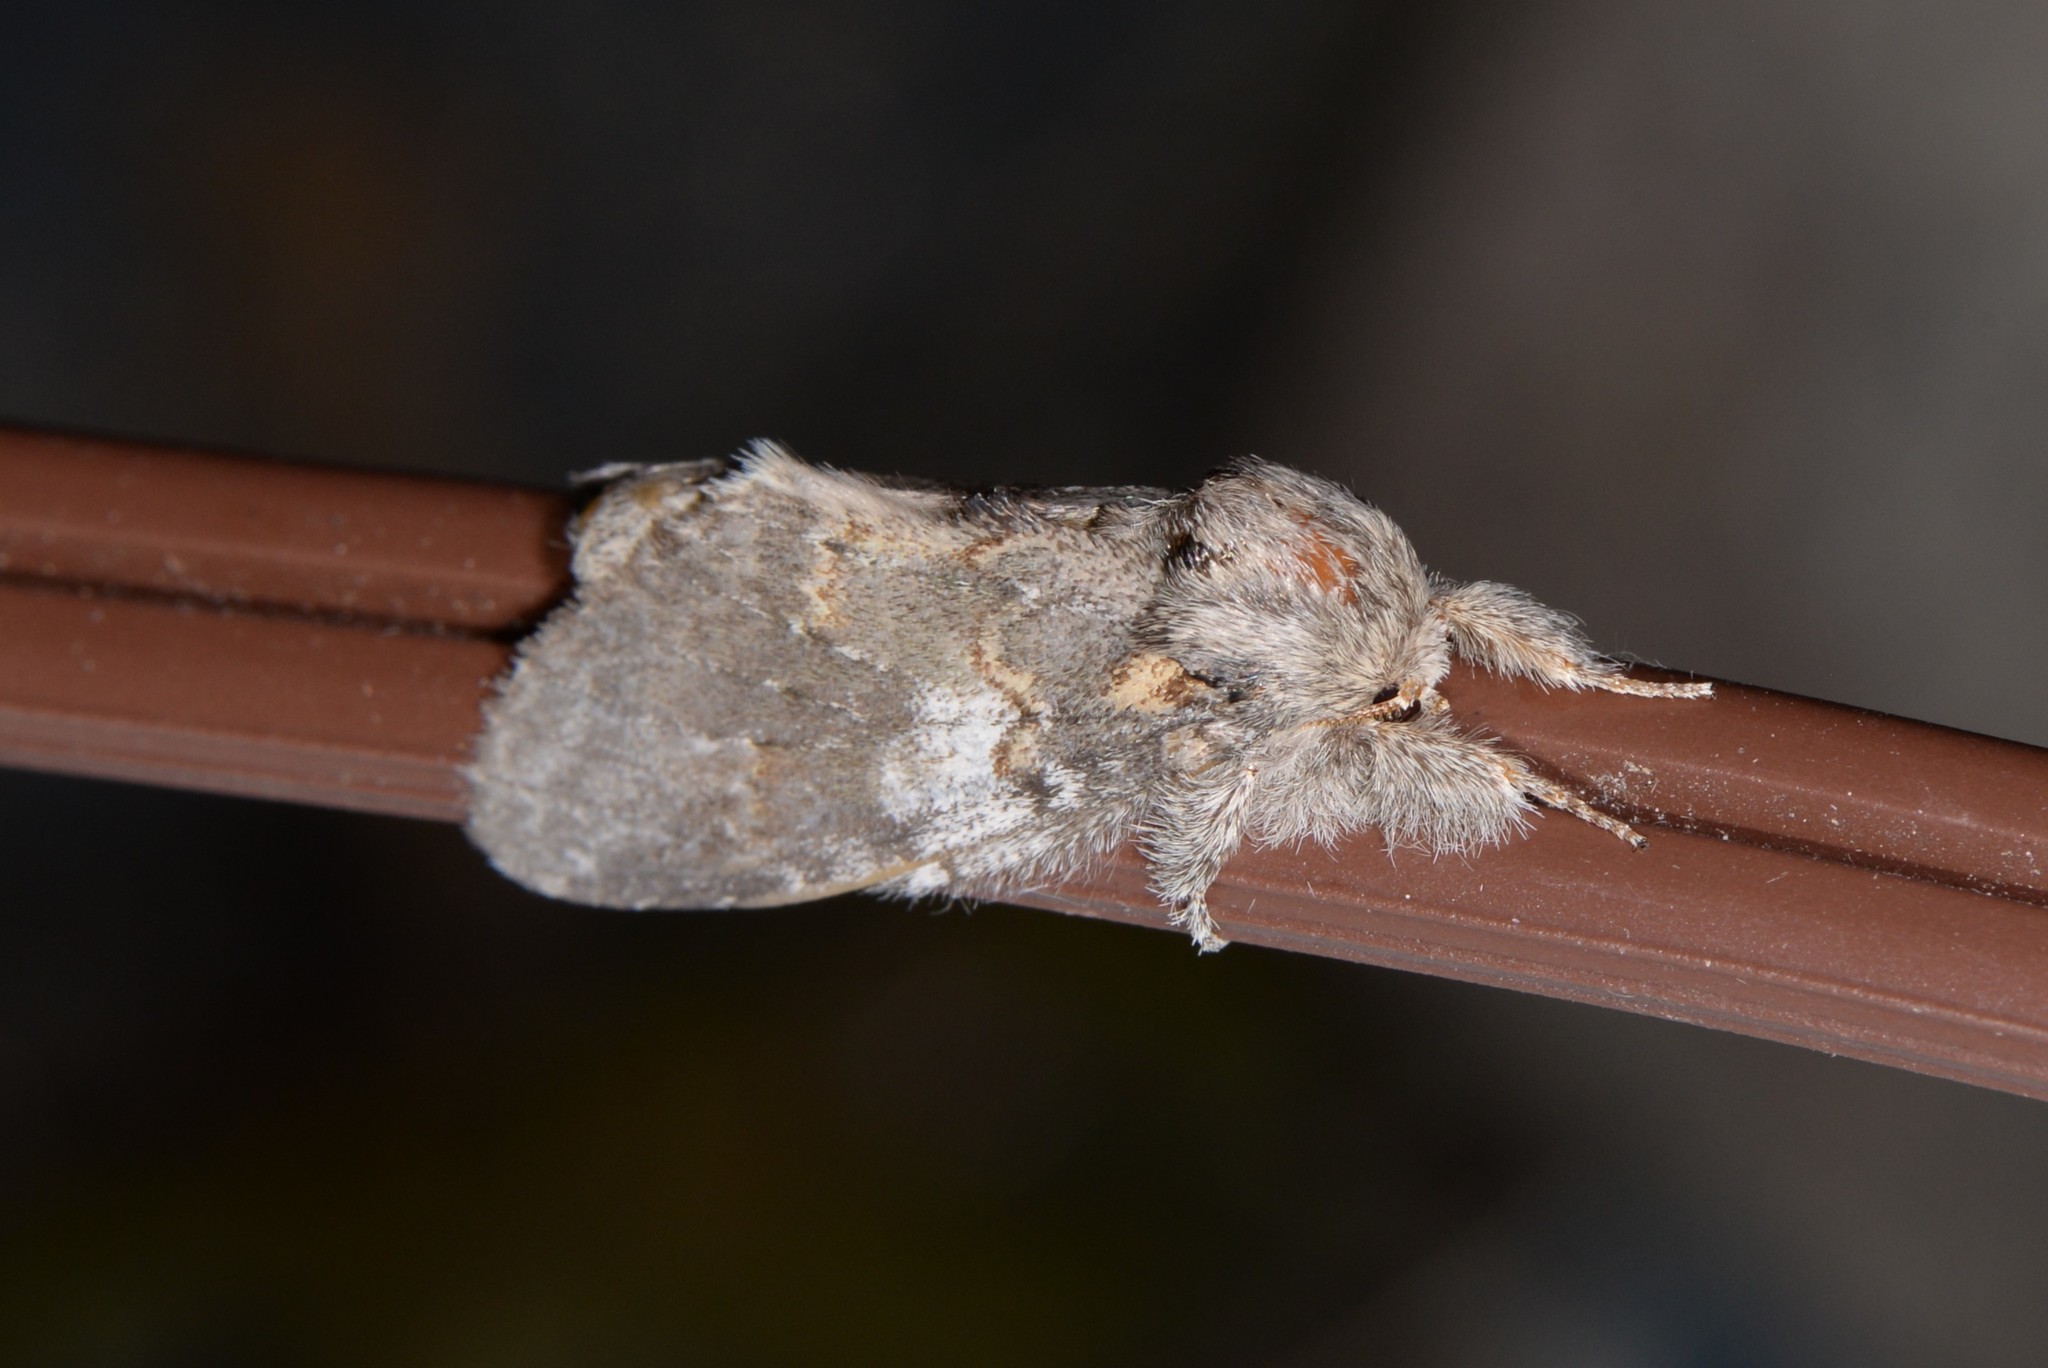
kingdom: Animalia
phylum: Arthropoda
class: Insecta
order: Lepidoptera
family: Notodontidae
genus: Peridea
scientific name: Peridea angulosa
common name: Angulose prominent
